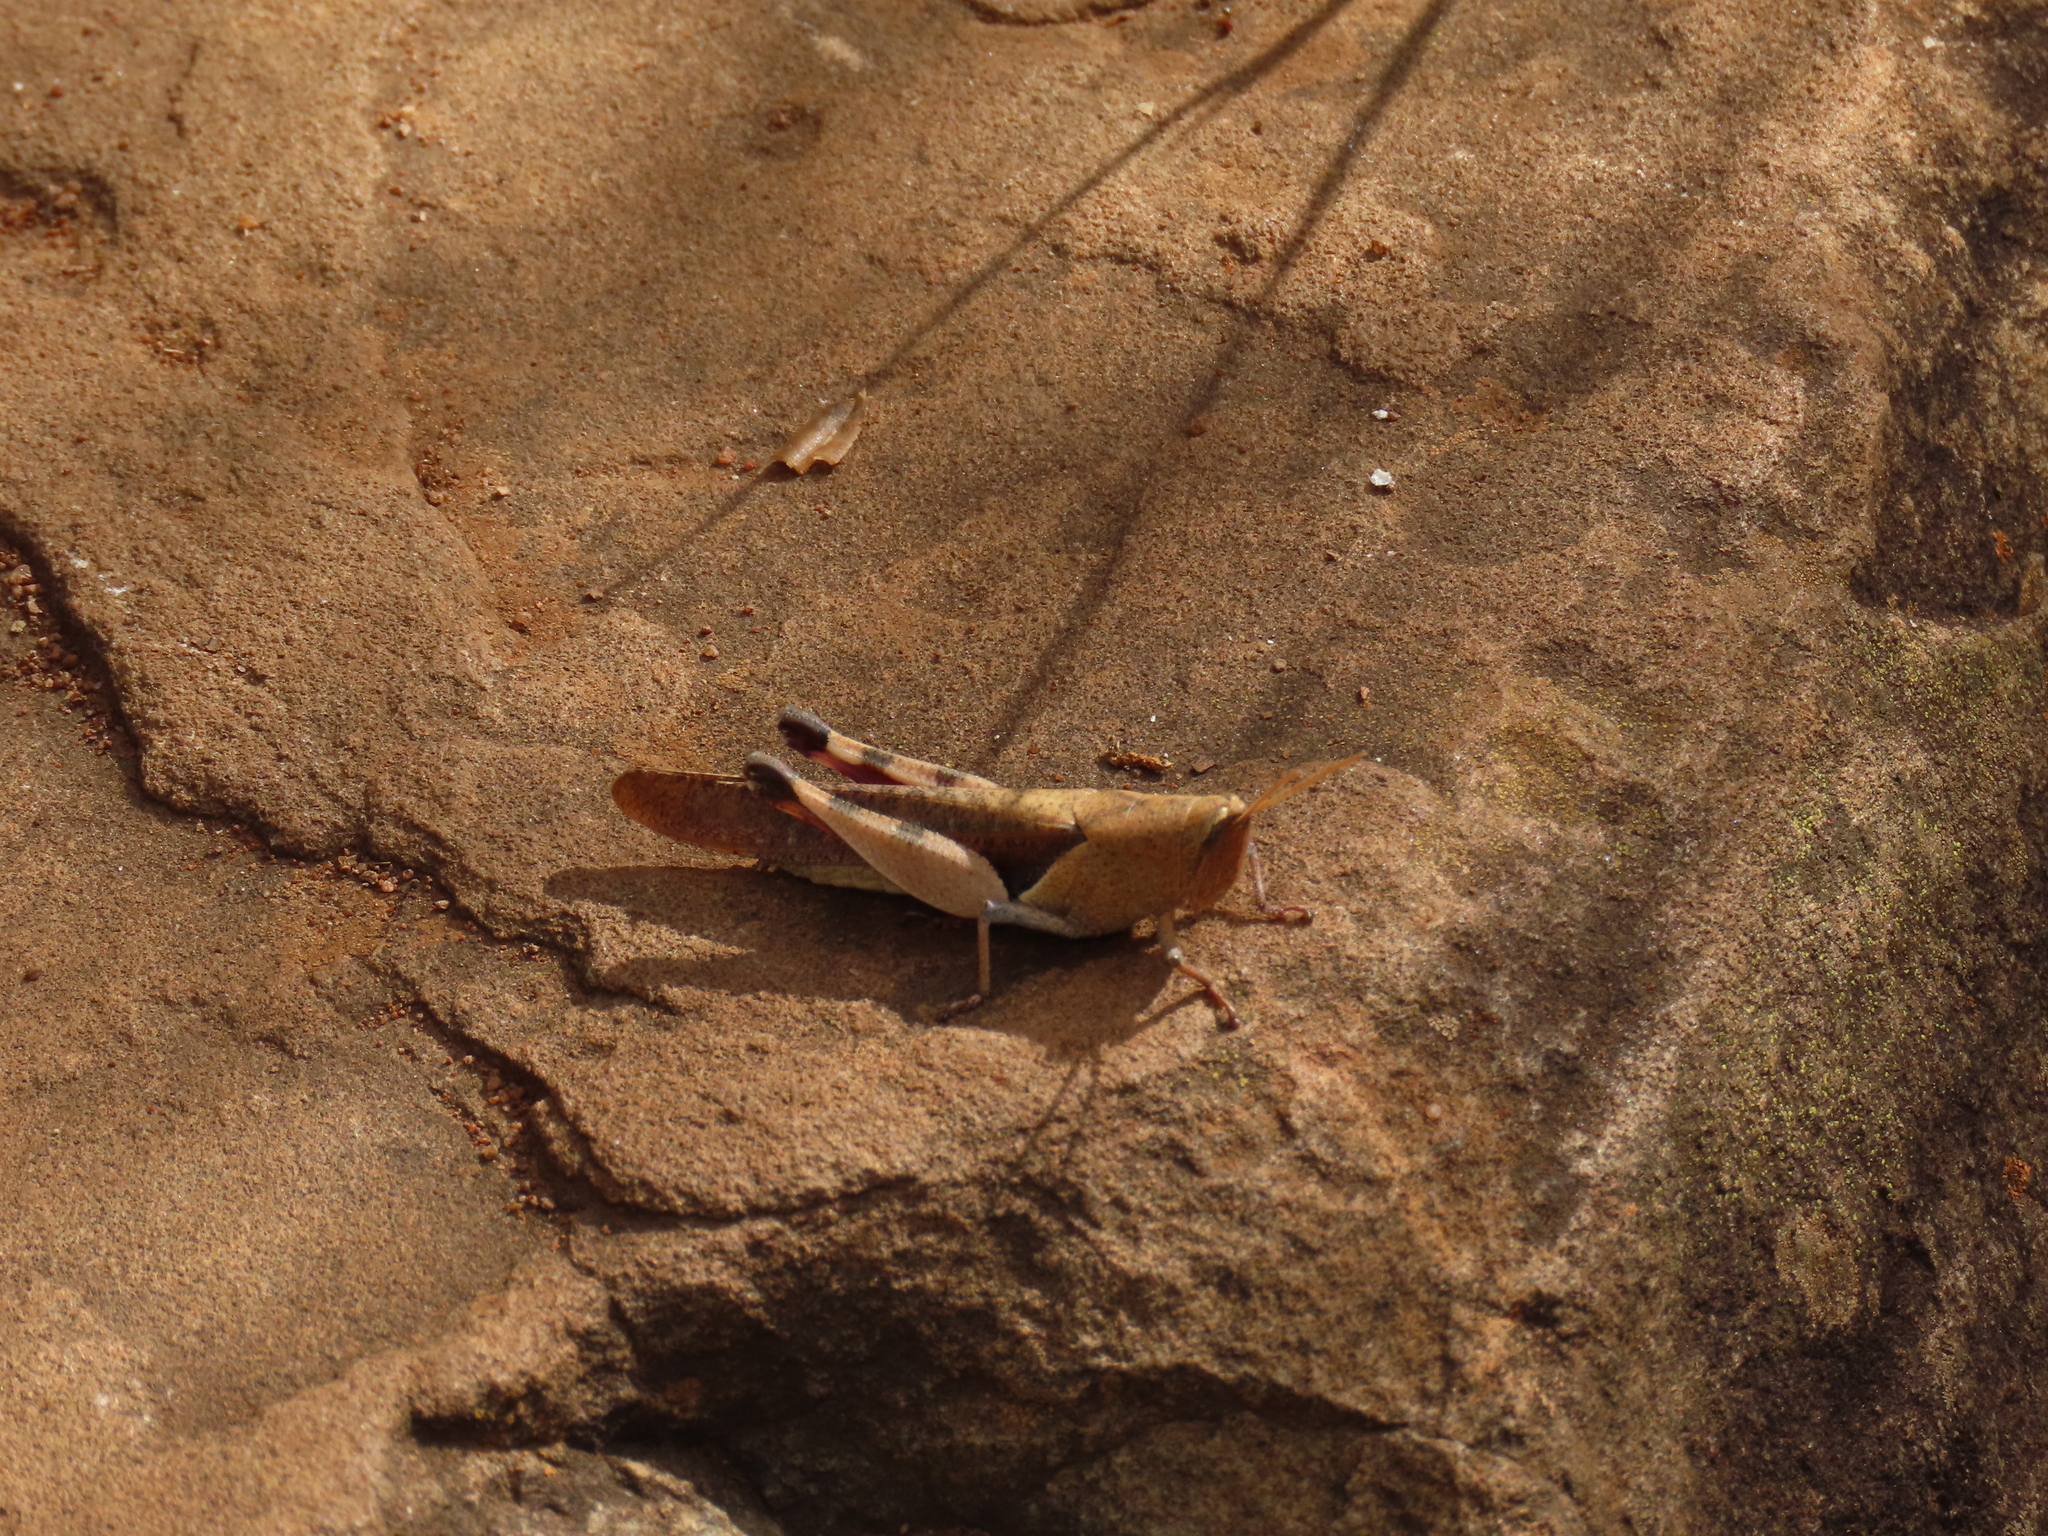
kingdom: Animalia
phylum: Arthropoda
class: Insecta
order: Orthoptera
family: Acrididae
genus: Oxycatantops
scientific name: Oxycatantops spissus
